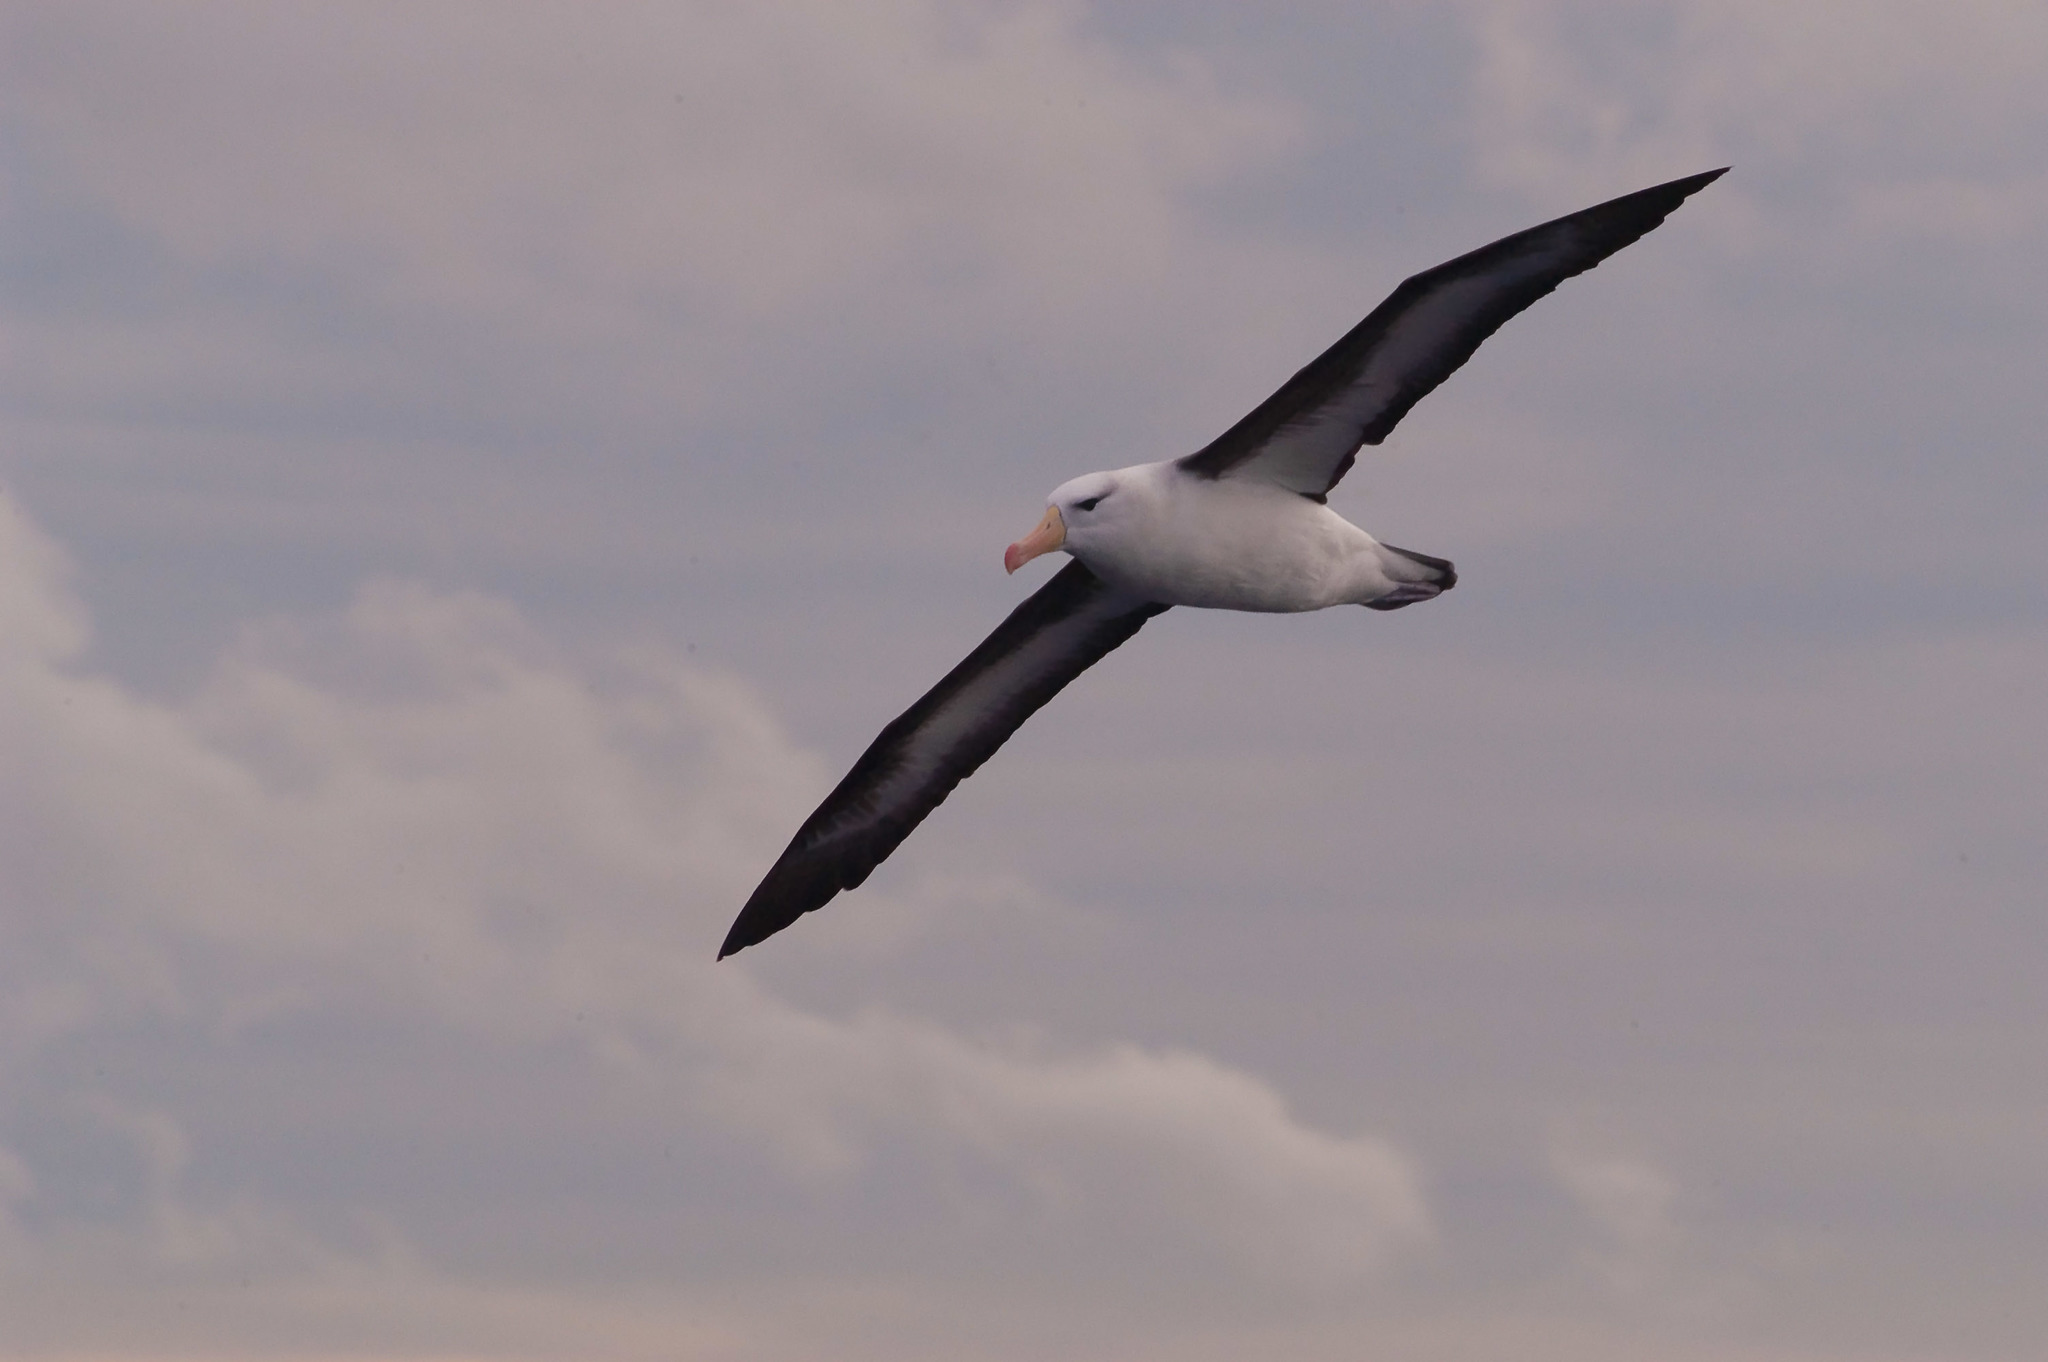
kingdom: Animalia
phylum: Chordata
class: Aves
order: Procellariiformes
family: Diomedeidae
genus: Thalassarche
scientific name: Thalassarche melanophris
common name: Black-browed albatross
